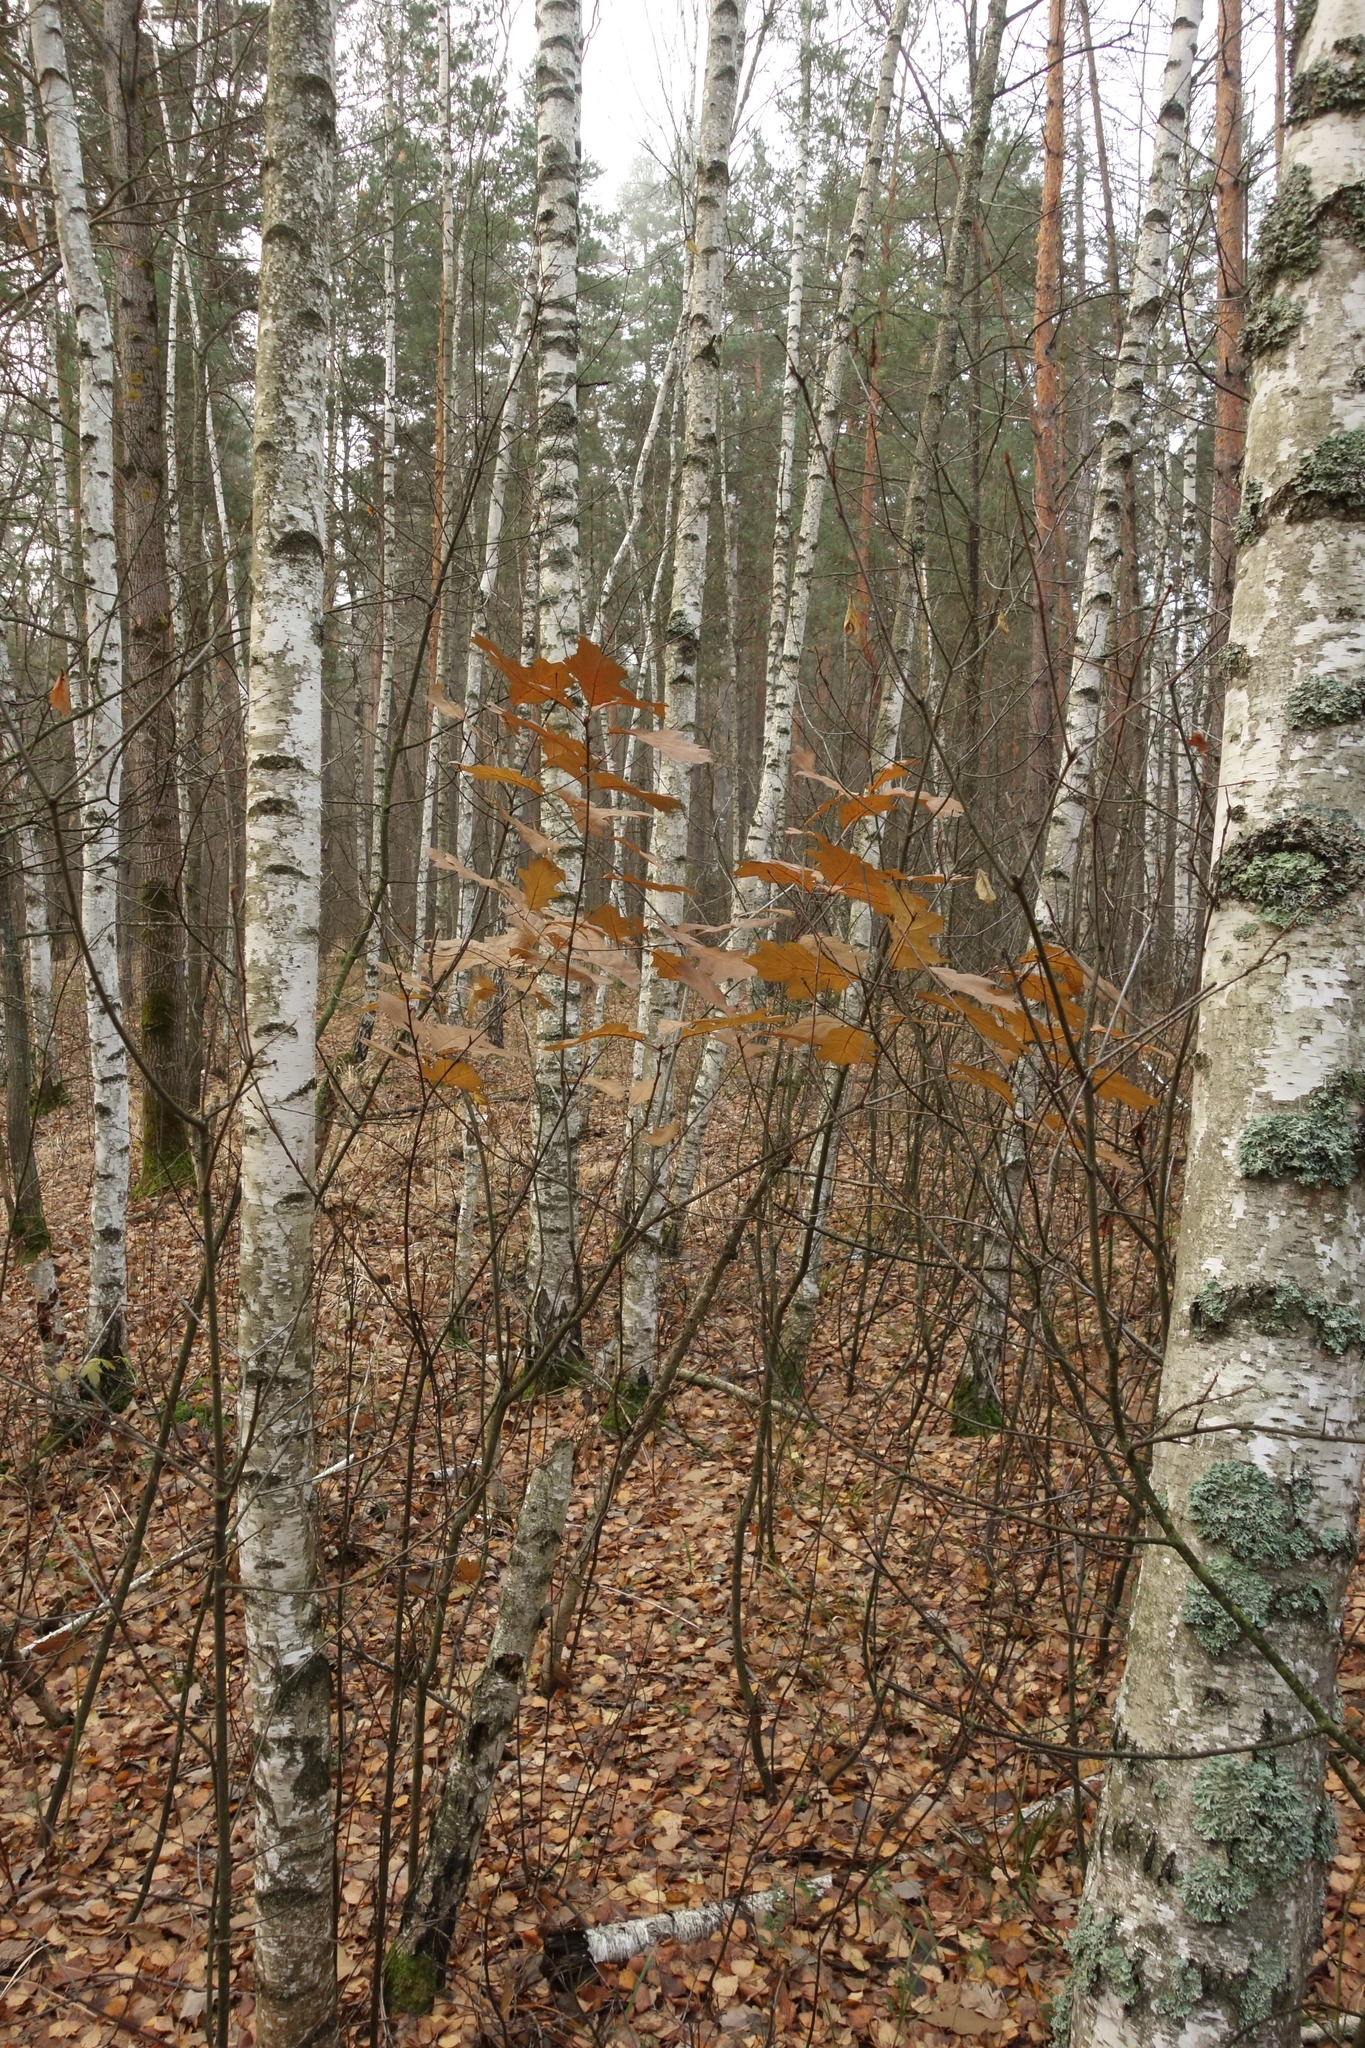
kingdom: Plantae
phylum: Tracheophyta
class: Magnoliopsida
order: Fagales
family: Fagaceae
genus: Quercus
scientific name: Quercus rubra
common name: Red oak
